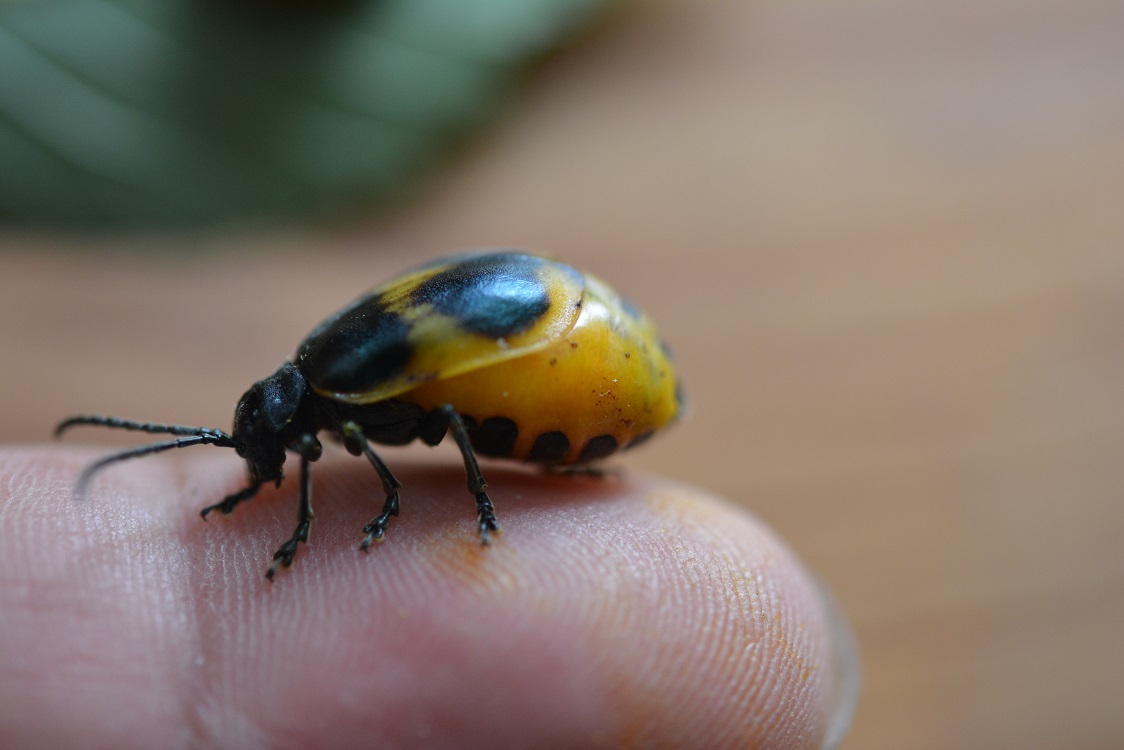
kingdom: Animalia
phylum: Arthropoda
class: Insecta
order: Coleoptera
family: Chrysomelidae
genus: Monocesta
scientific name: Monocesta
